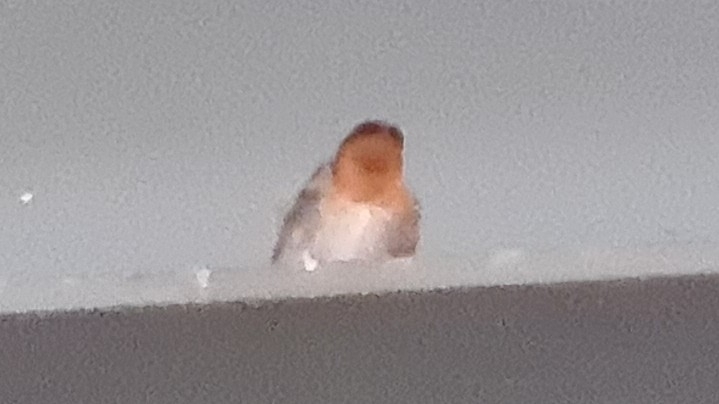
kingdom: Animalia
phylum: Chordata
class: Aves
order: Passeriformes
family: Hirundinidae
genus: Hirundo
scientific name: Hirundo neoxena
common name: Welcome swallow
